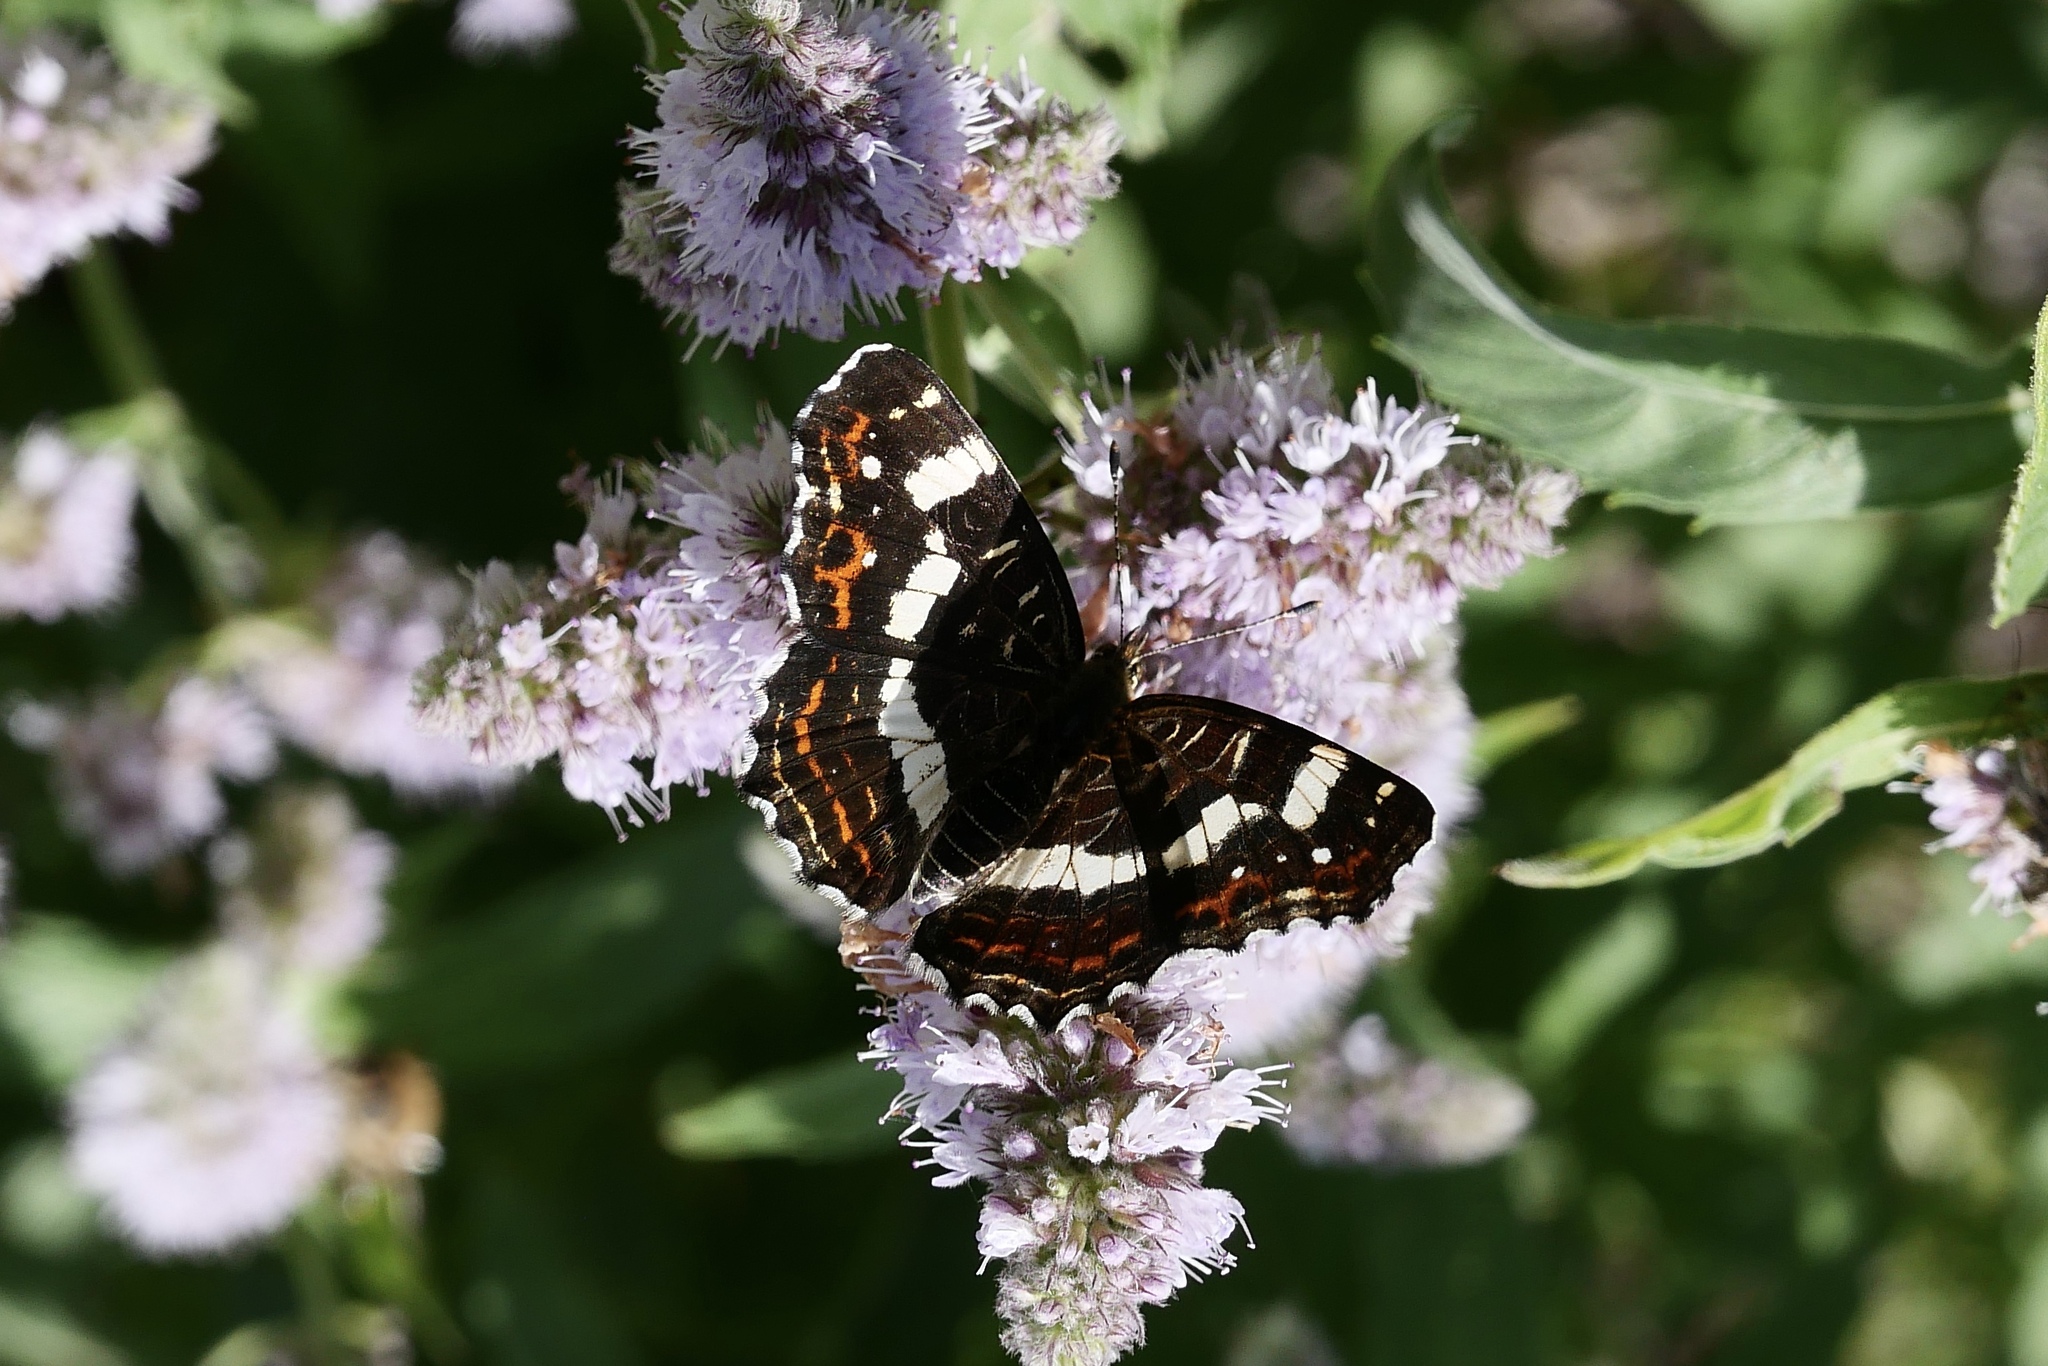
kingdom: Animalia
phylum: Arthropoda
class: Insecta
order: Lepidoptera
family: Nymphalidae
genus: Araschnia
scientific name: Araschnia levana
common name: Map butterfly
